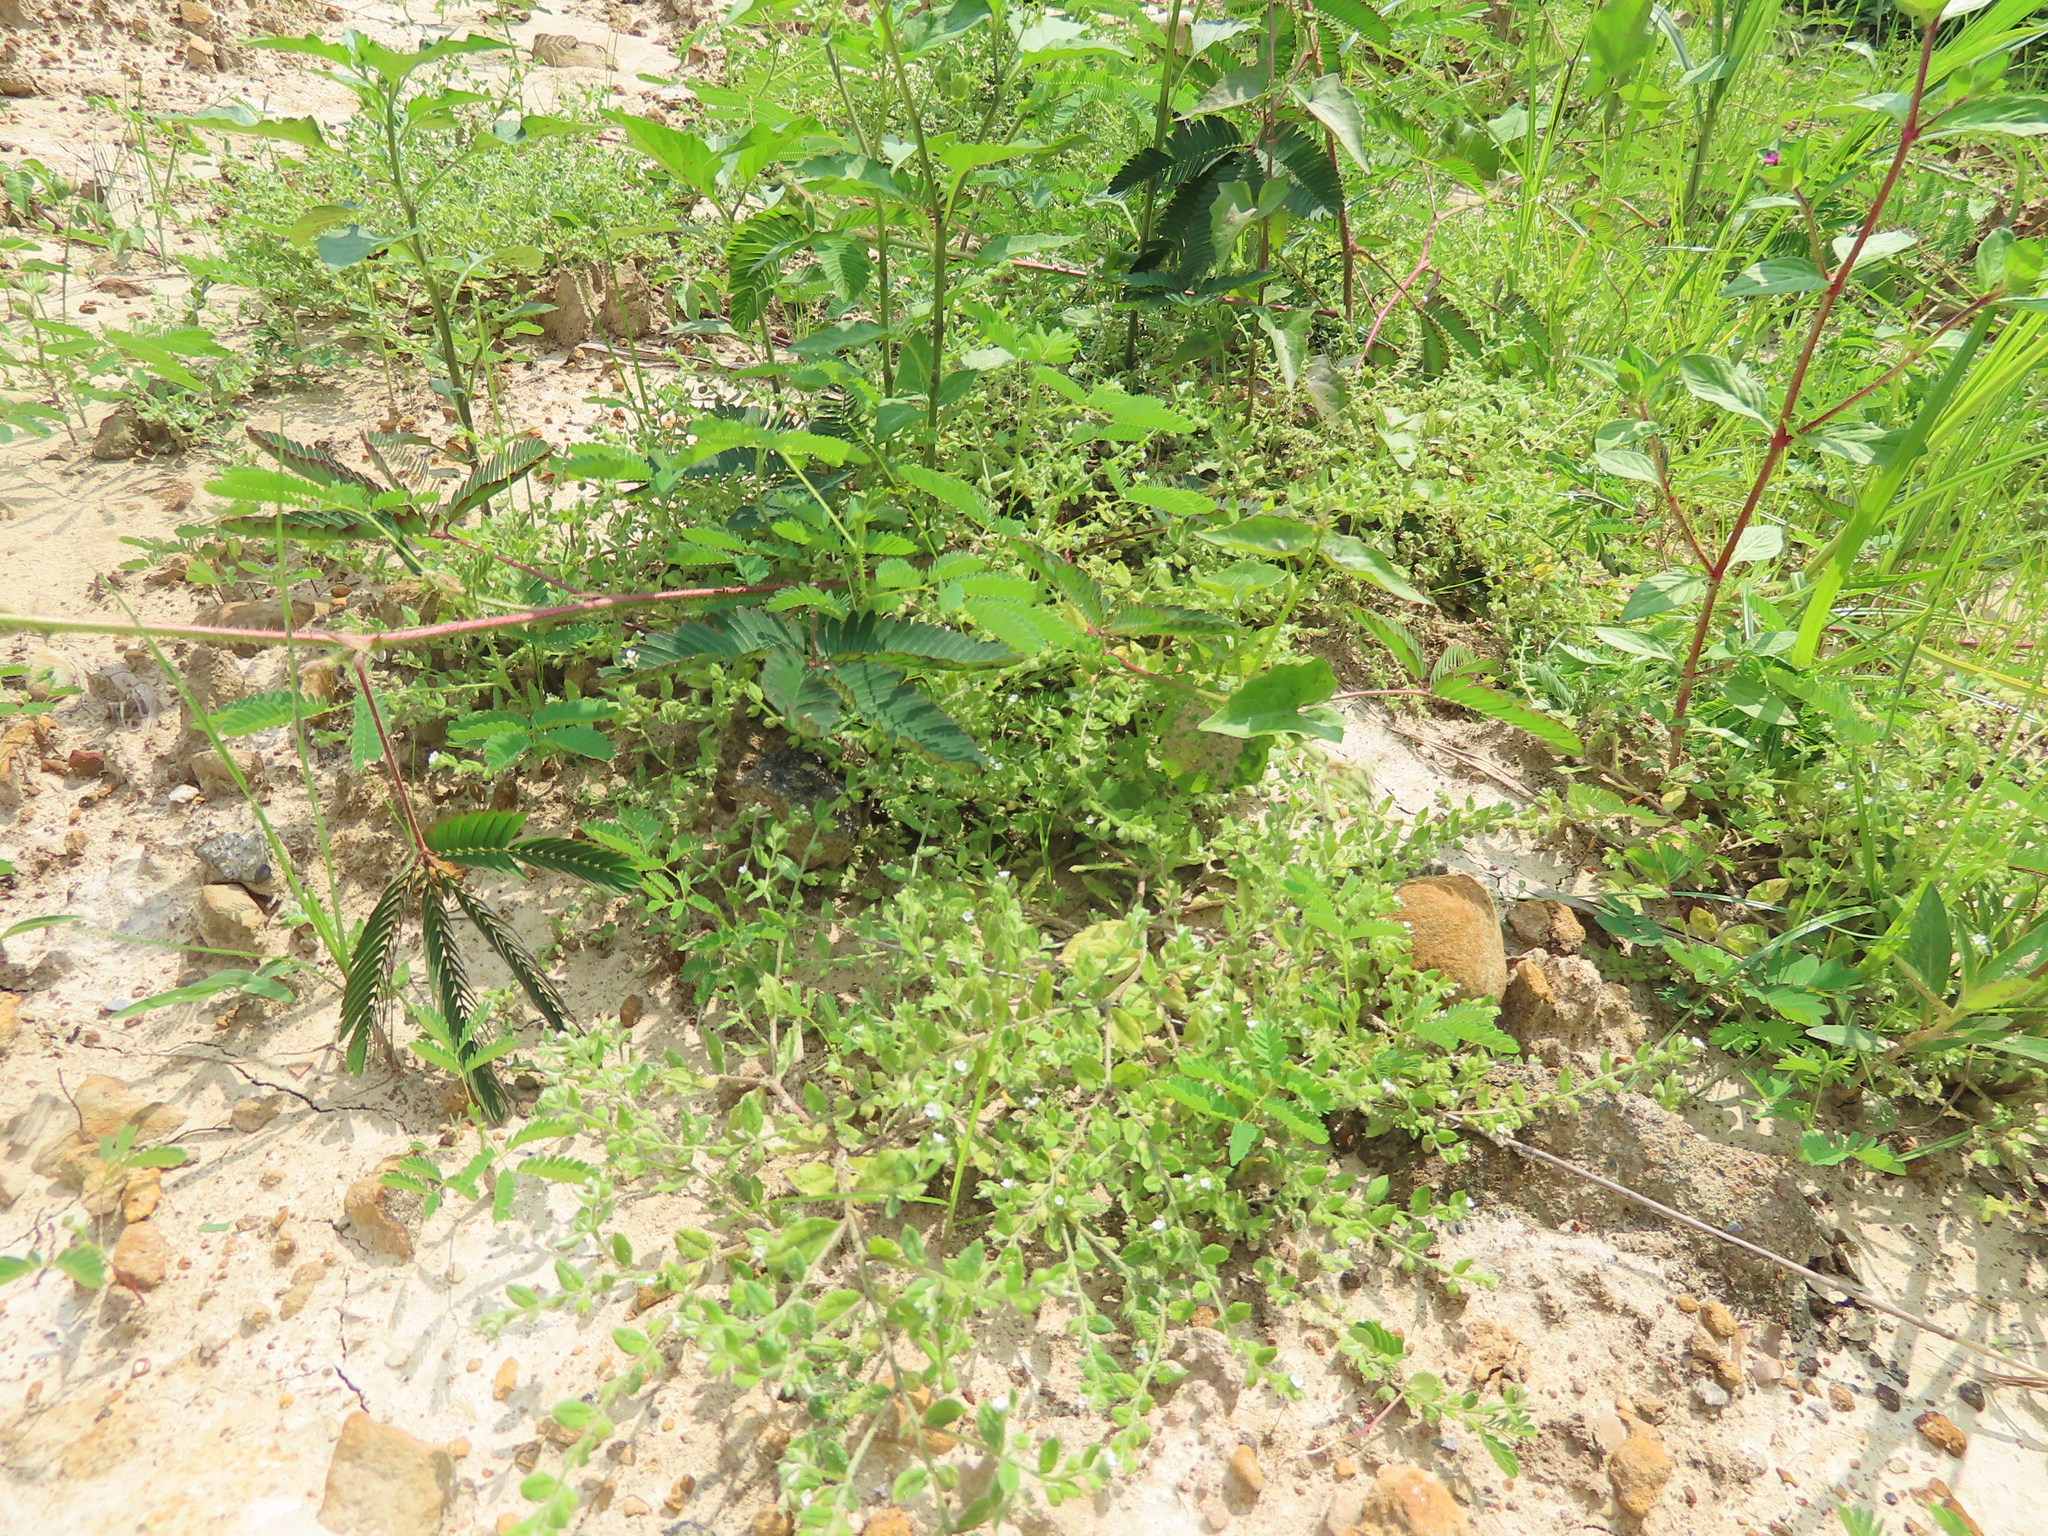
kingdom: Plantae
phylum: Tracheophyta
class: Magnoliopsida
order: Fabales
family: Fabaceae
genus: Mimosa
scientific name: Mimosa pudica
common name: Sensitive plant
